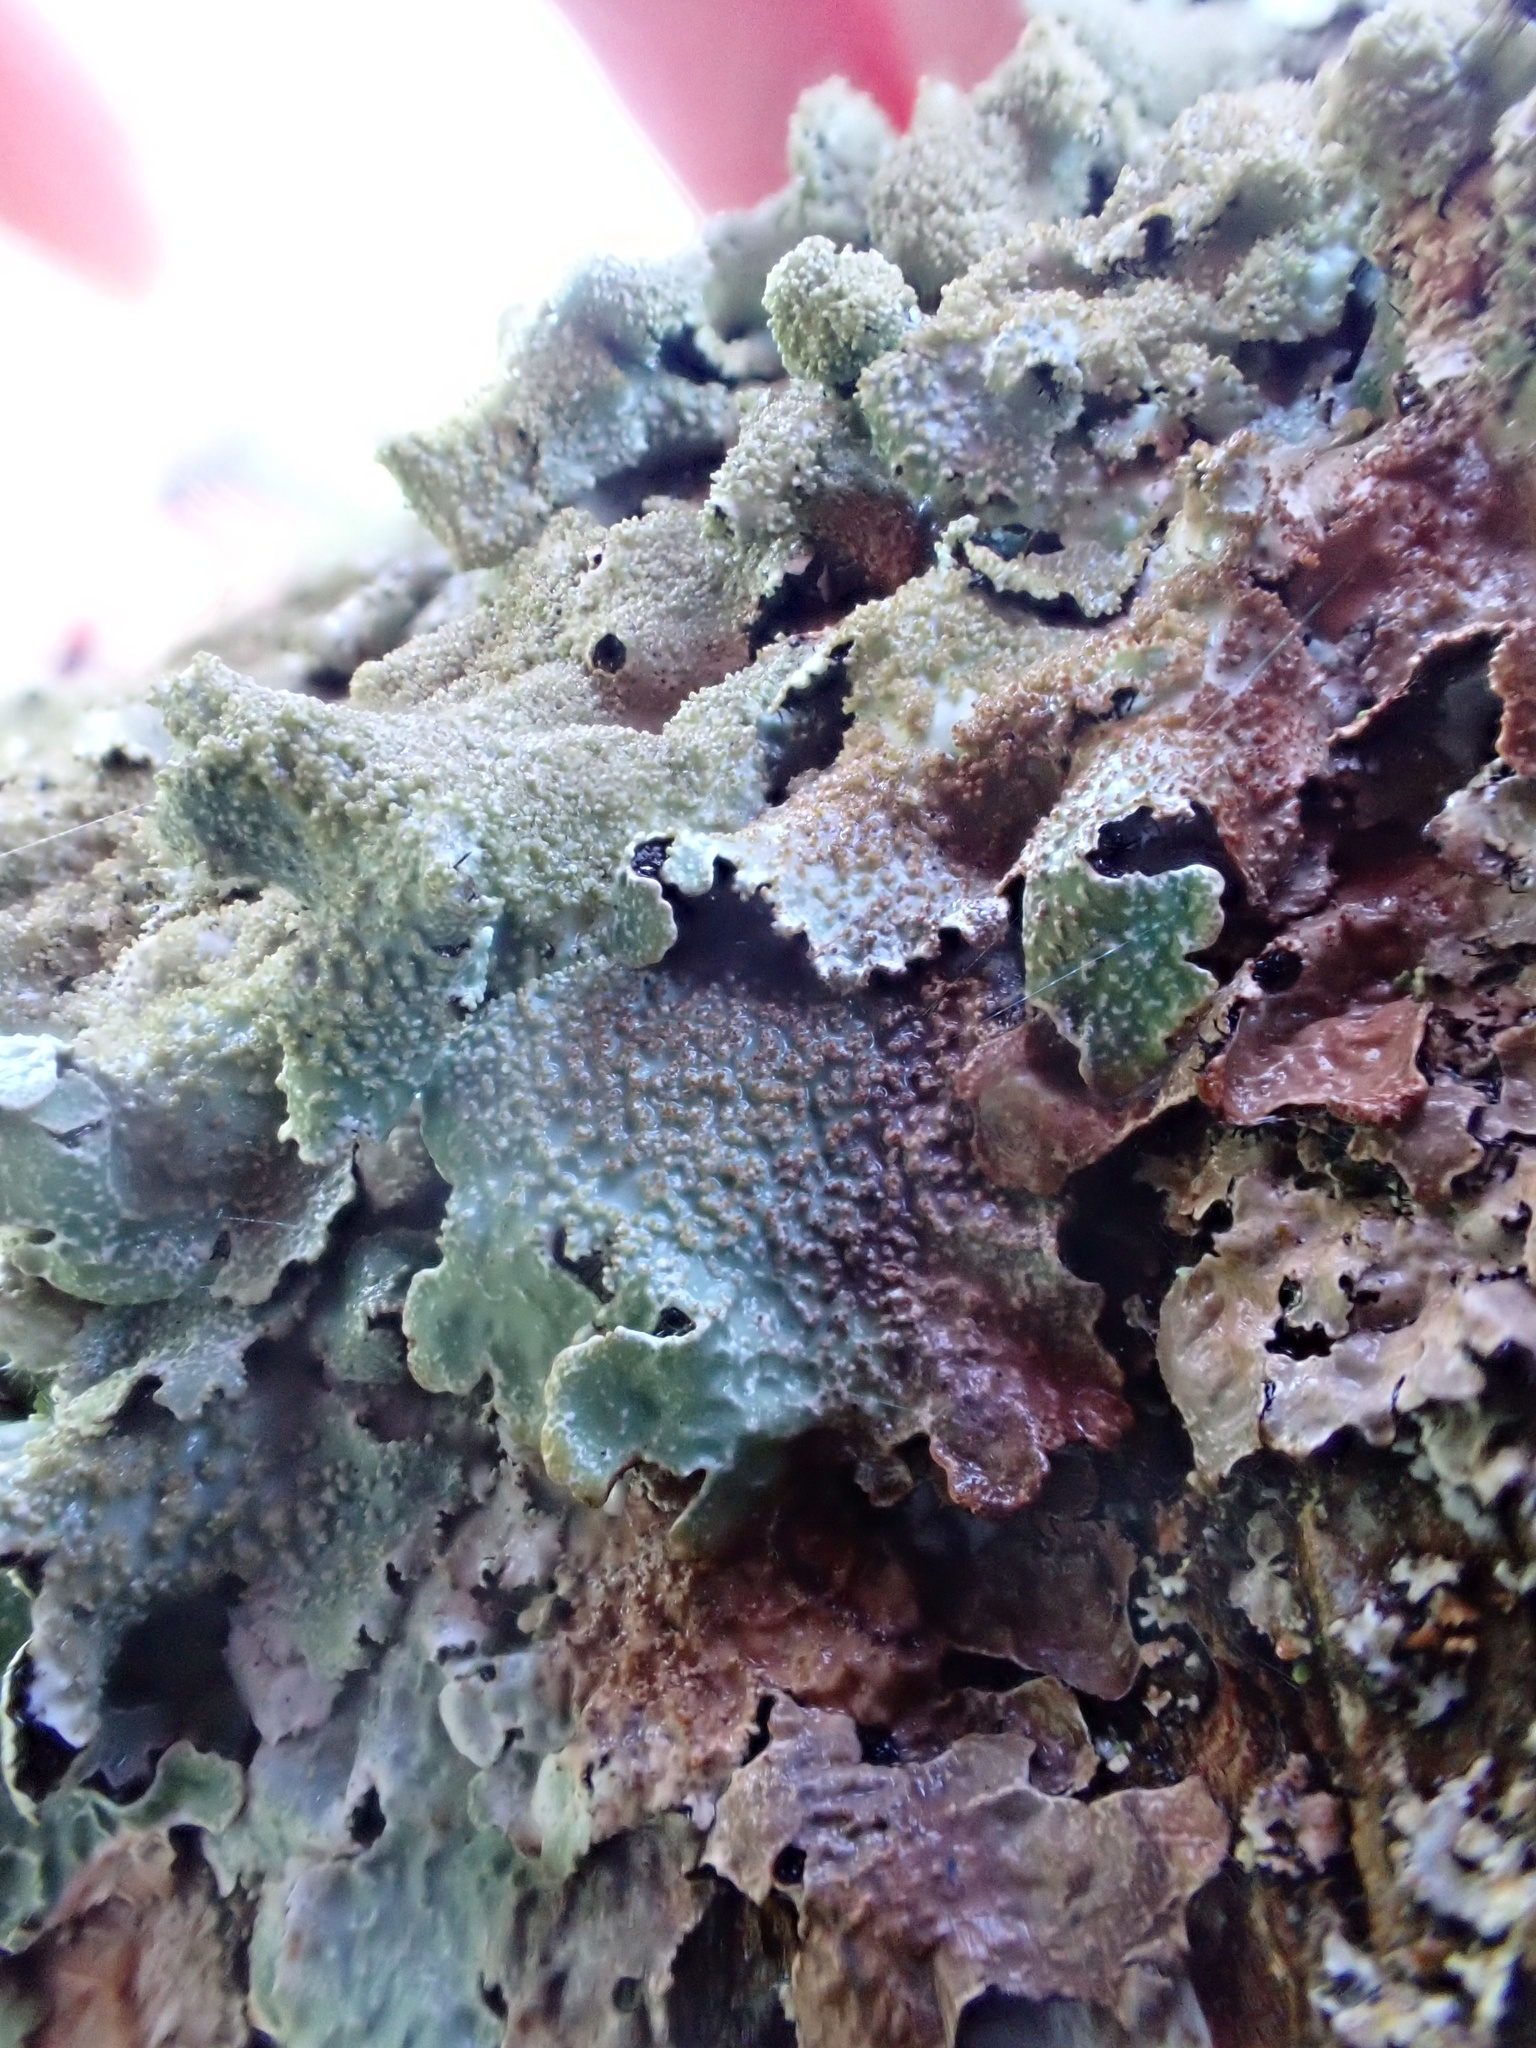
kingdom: Fungi
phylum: Ascomycota
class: Lecanoromycetes
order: Lecanorales
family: Parmeliaceae
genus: Parmelia
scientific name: Parmelia saxatilis
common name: Salted shield lichen
